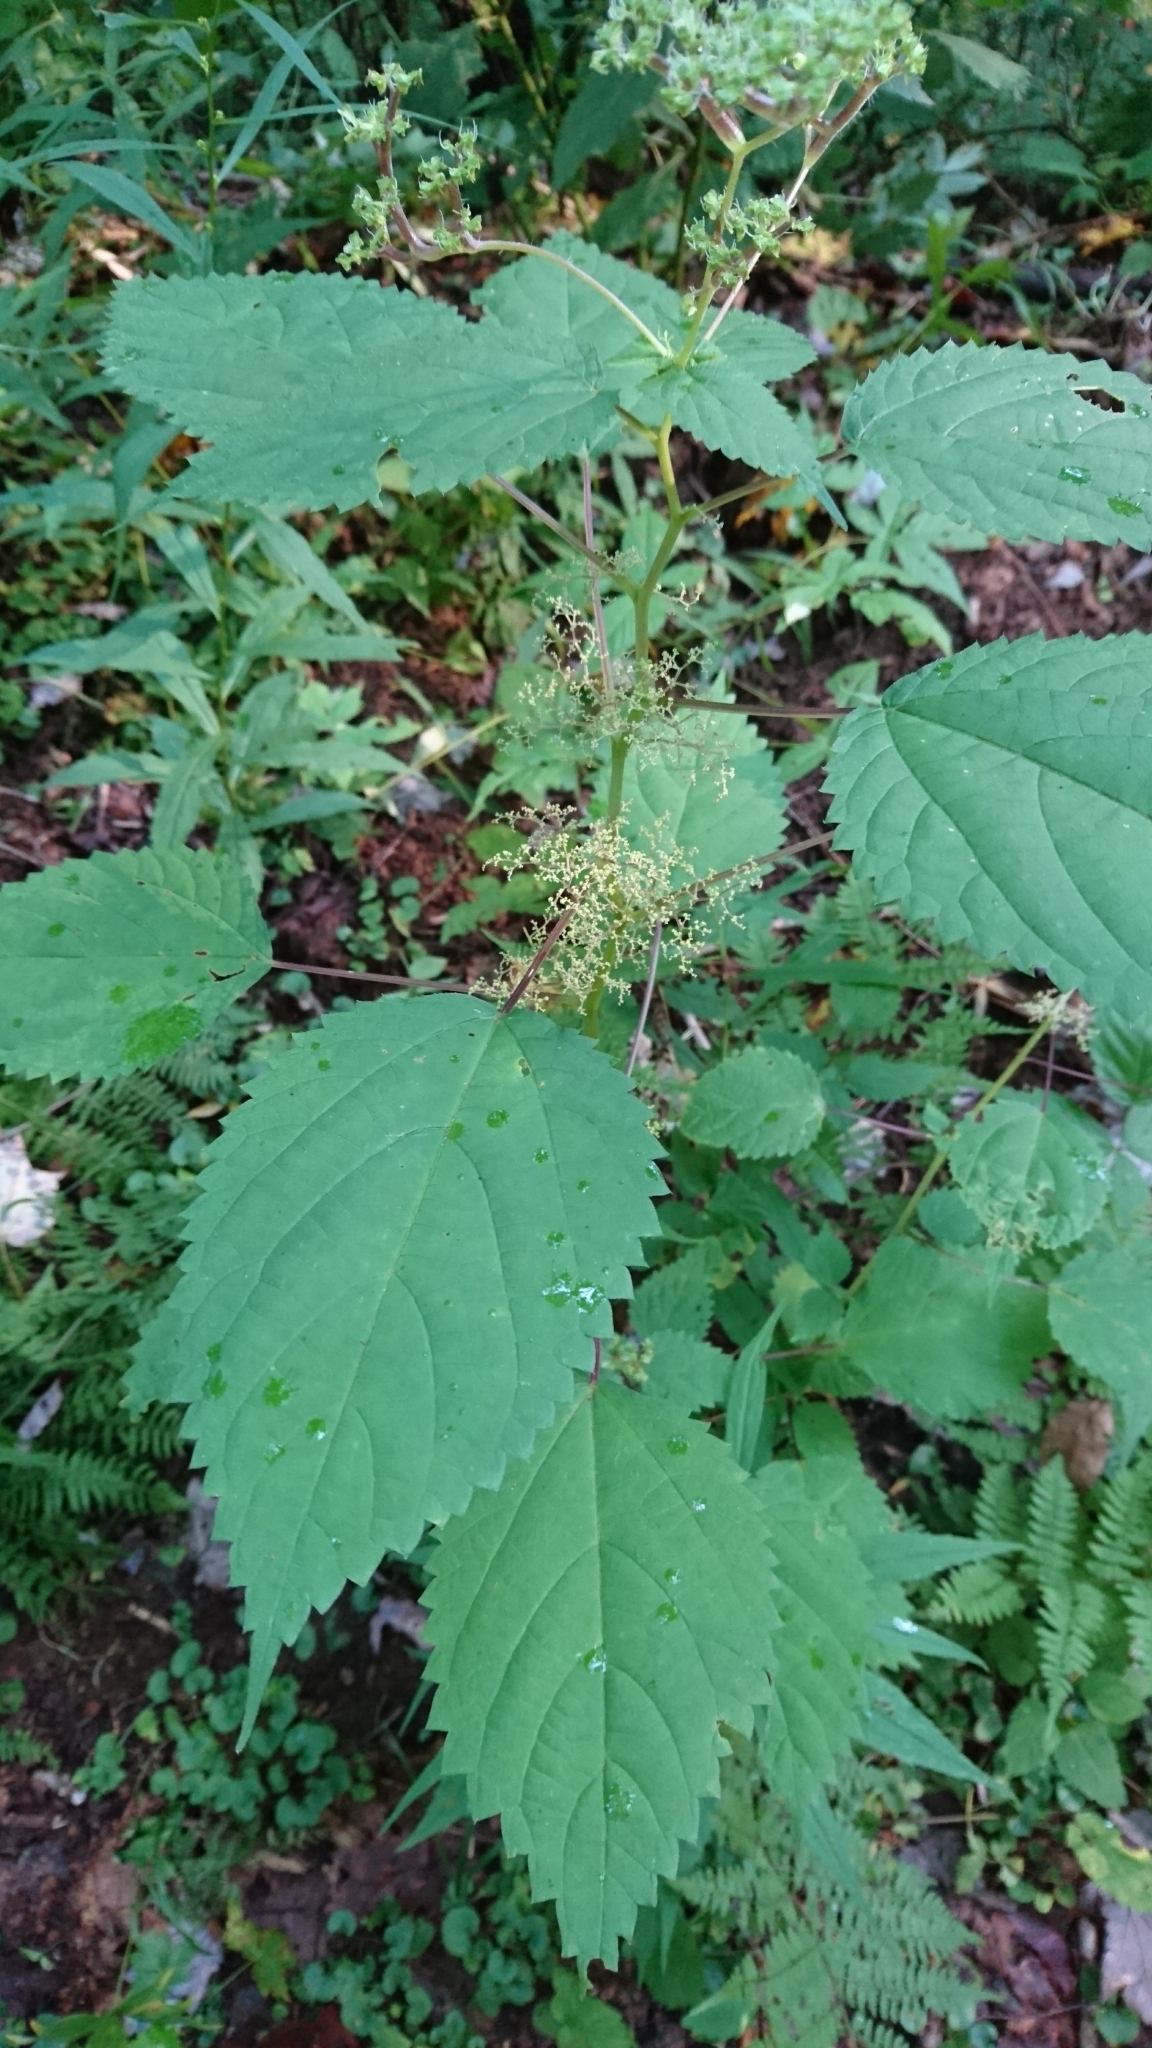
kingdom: Plantae
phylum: Tracheophyta
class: Magnoliopsida
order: Rosales
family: Urticaceae
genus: Laportea
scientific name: Laportea canadensis
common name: Canada nettle
